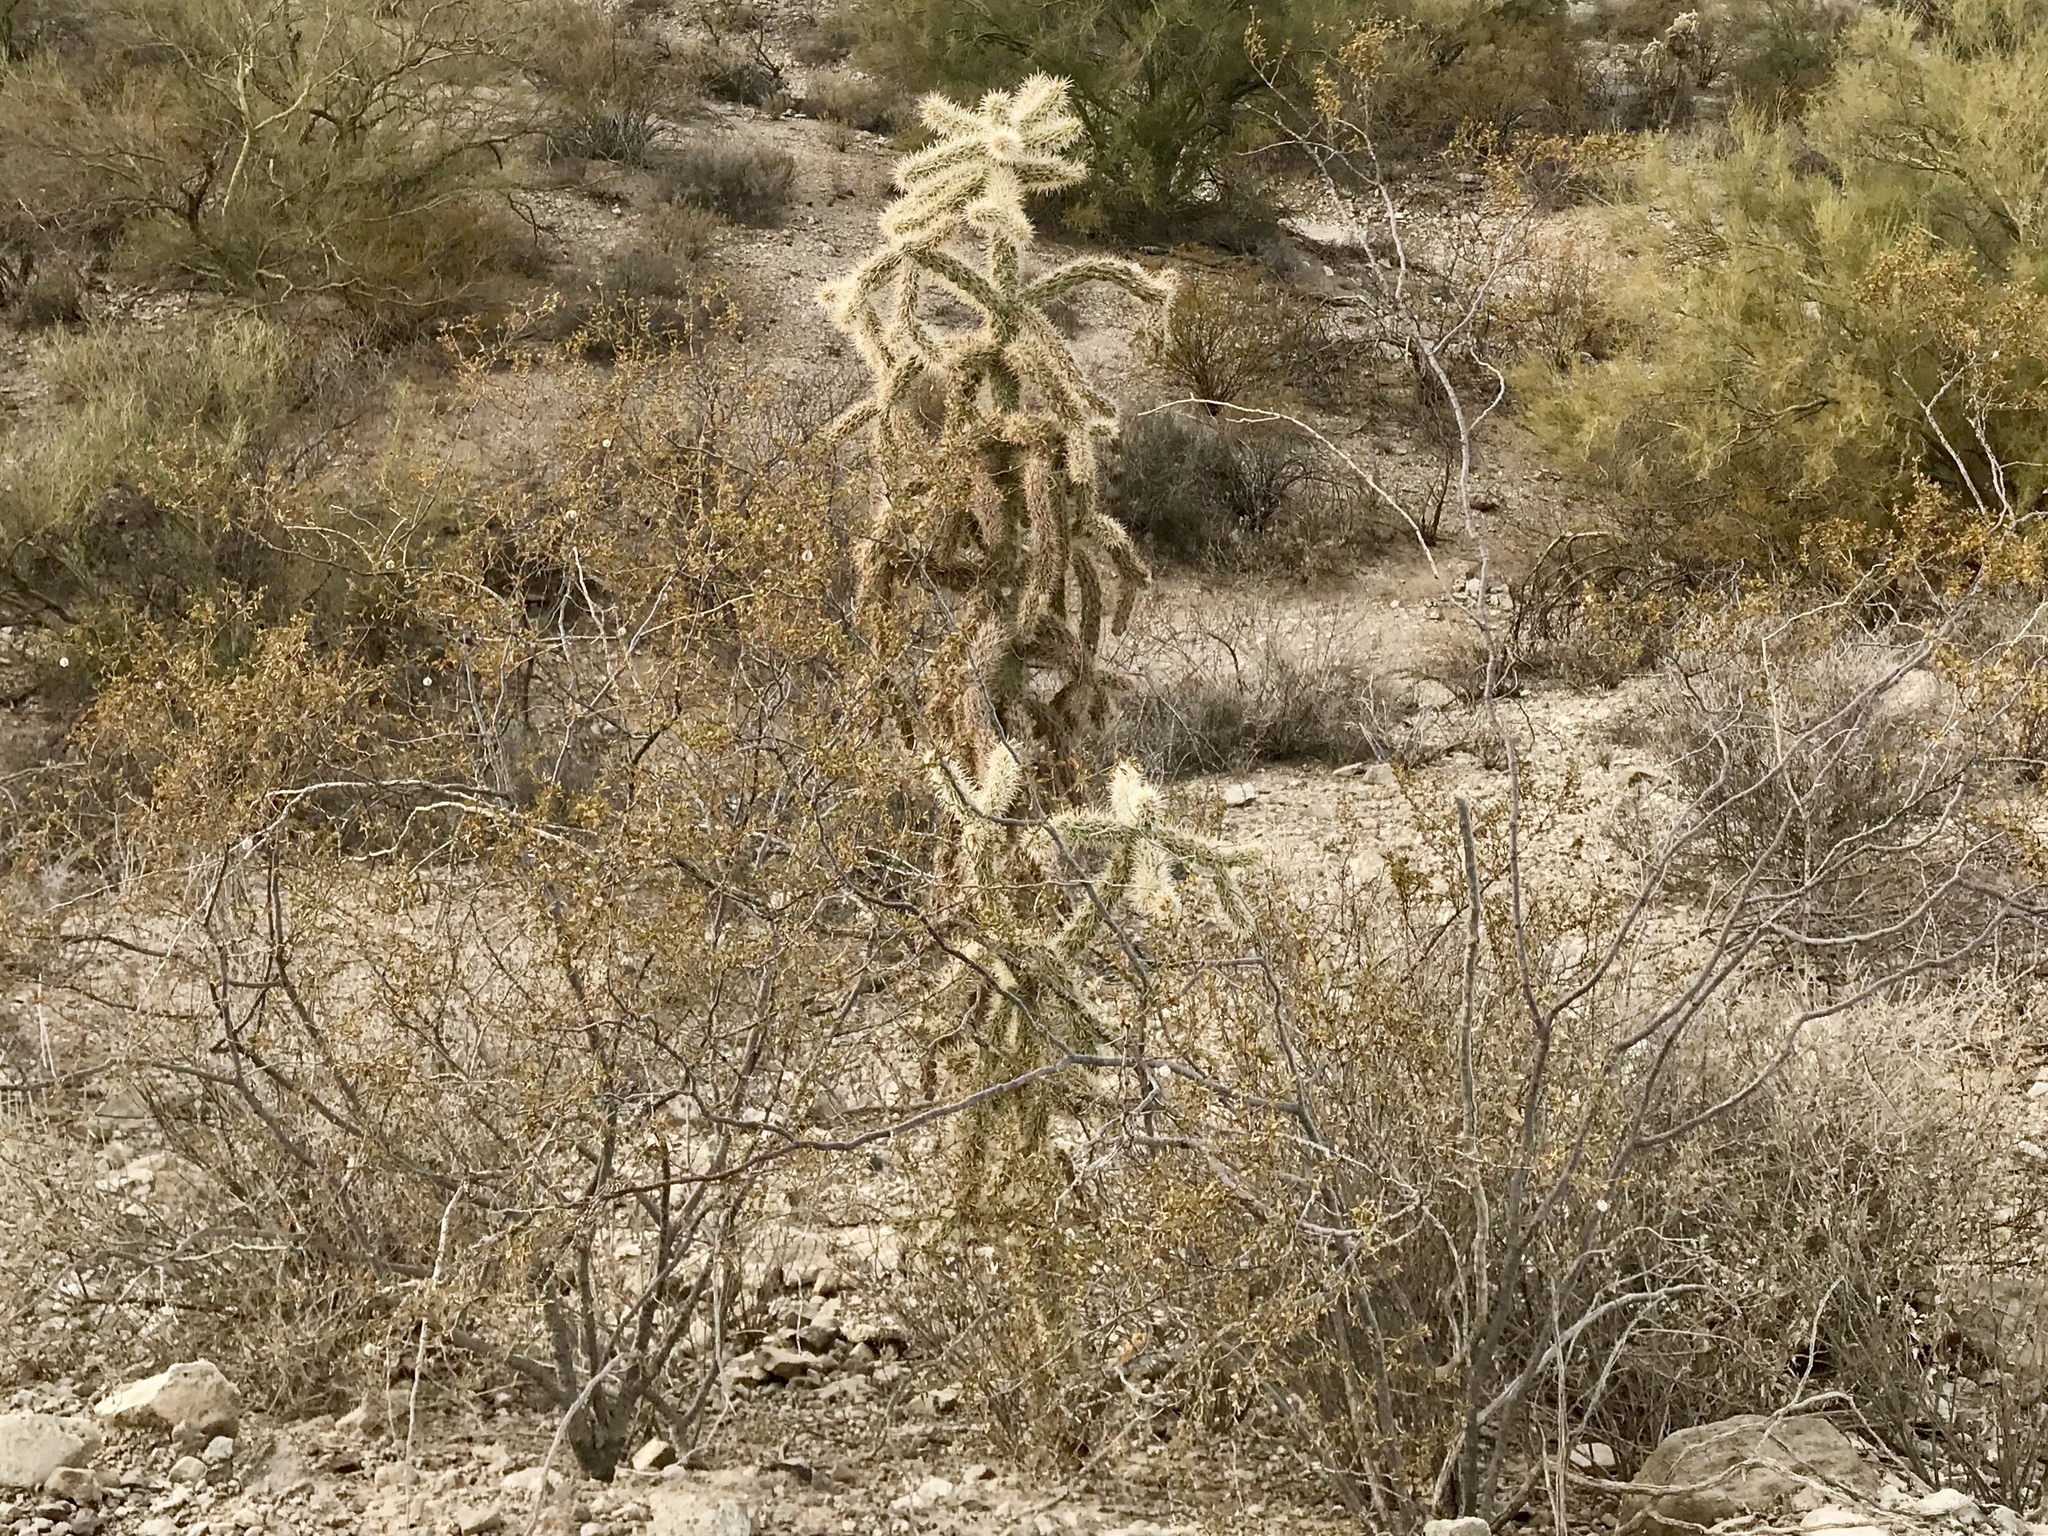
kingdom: Plantae
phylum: Tracheophyta
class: Magnoliopsida
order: Caryophyllales
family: Cactaceae
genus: Cylindropuntia
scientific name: Cylindropuntia imbricata
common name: Candelabrum cactus
